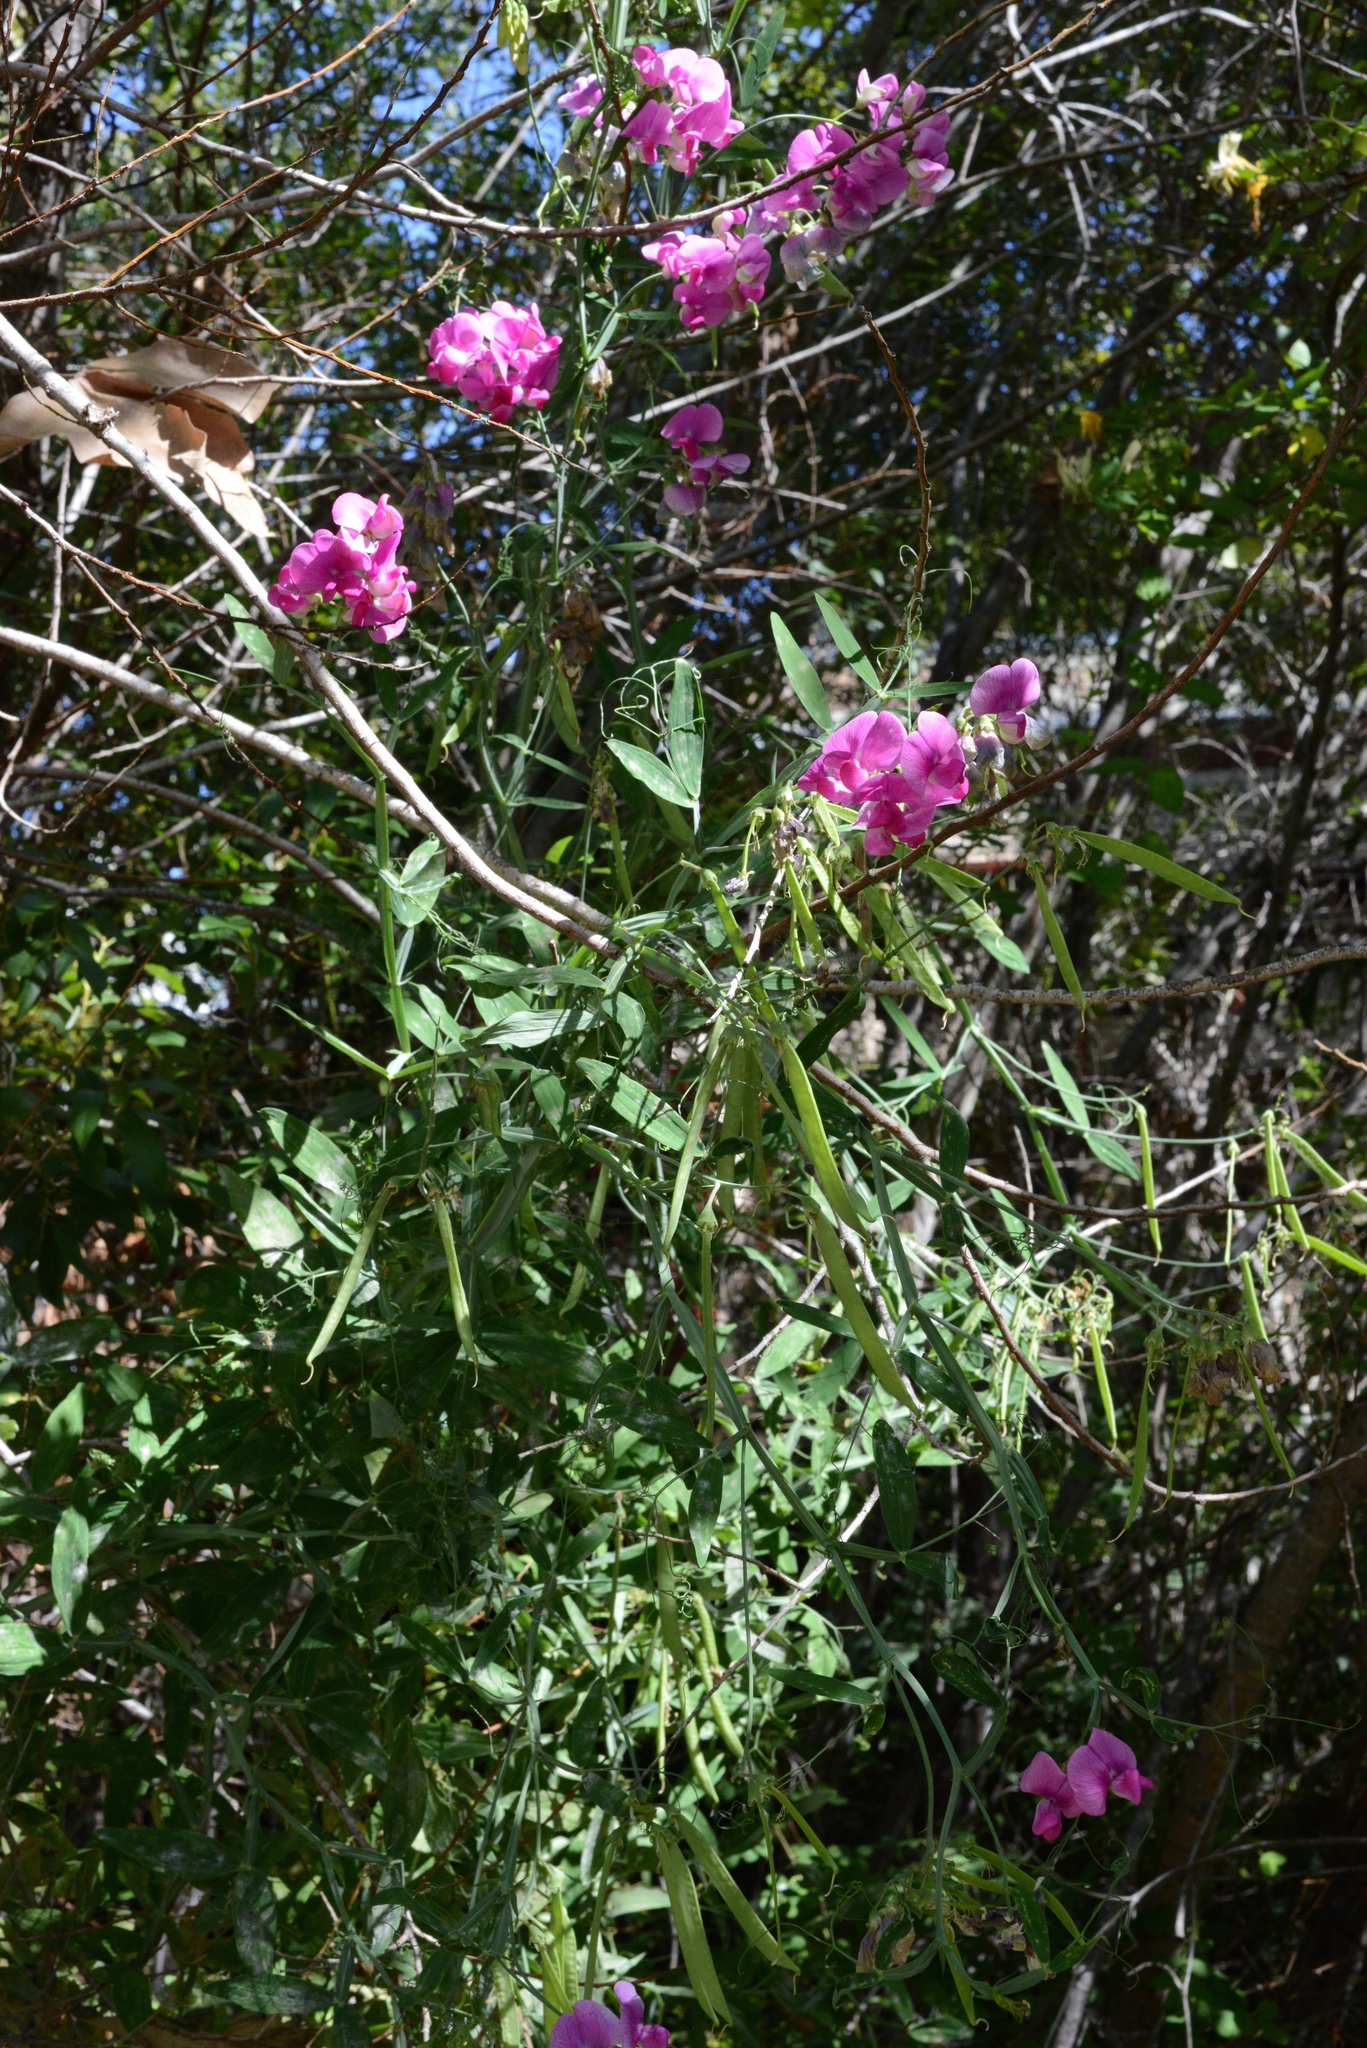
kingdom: Plantae
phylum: Tracheophyta
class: Magnoliopsida
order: Fabales
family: Fabaceae
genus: Lathyrus
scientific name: Lathyrus latifolius
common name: Perennial pea
